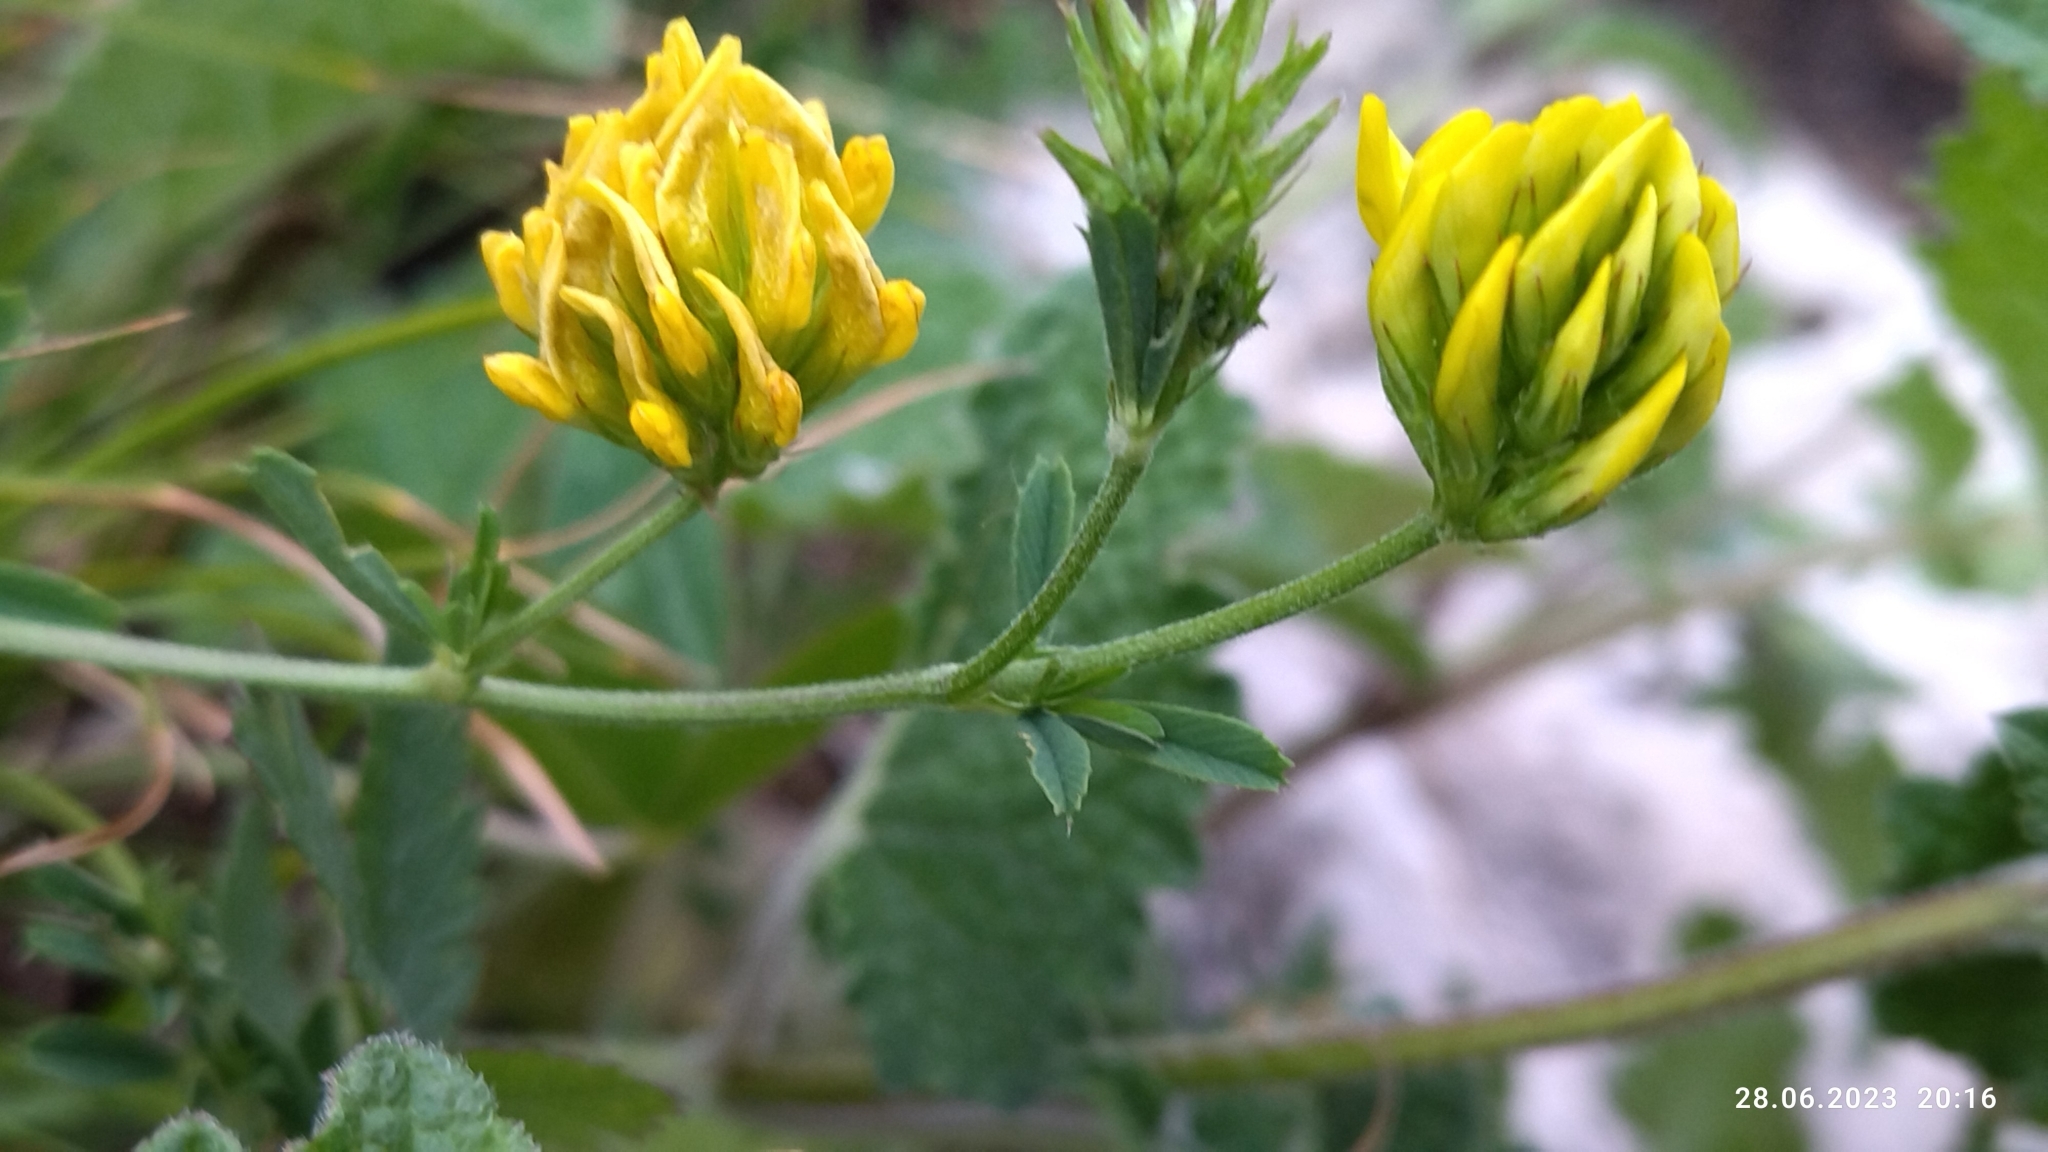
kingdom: Plantae
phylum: Tracheophyta
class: Magnoliopsida
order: Fabales
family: Fabaceae
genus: Medicago
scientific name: Medicago falcata
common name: Sickle medick
